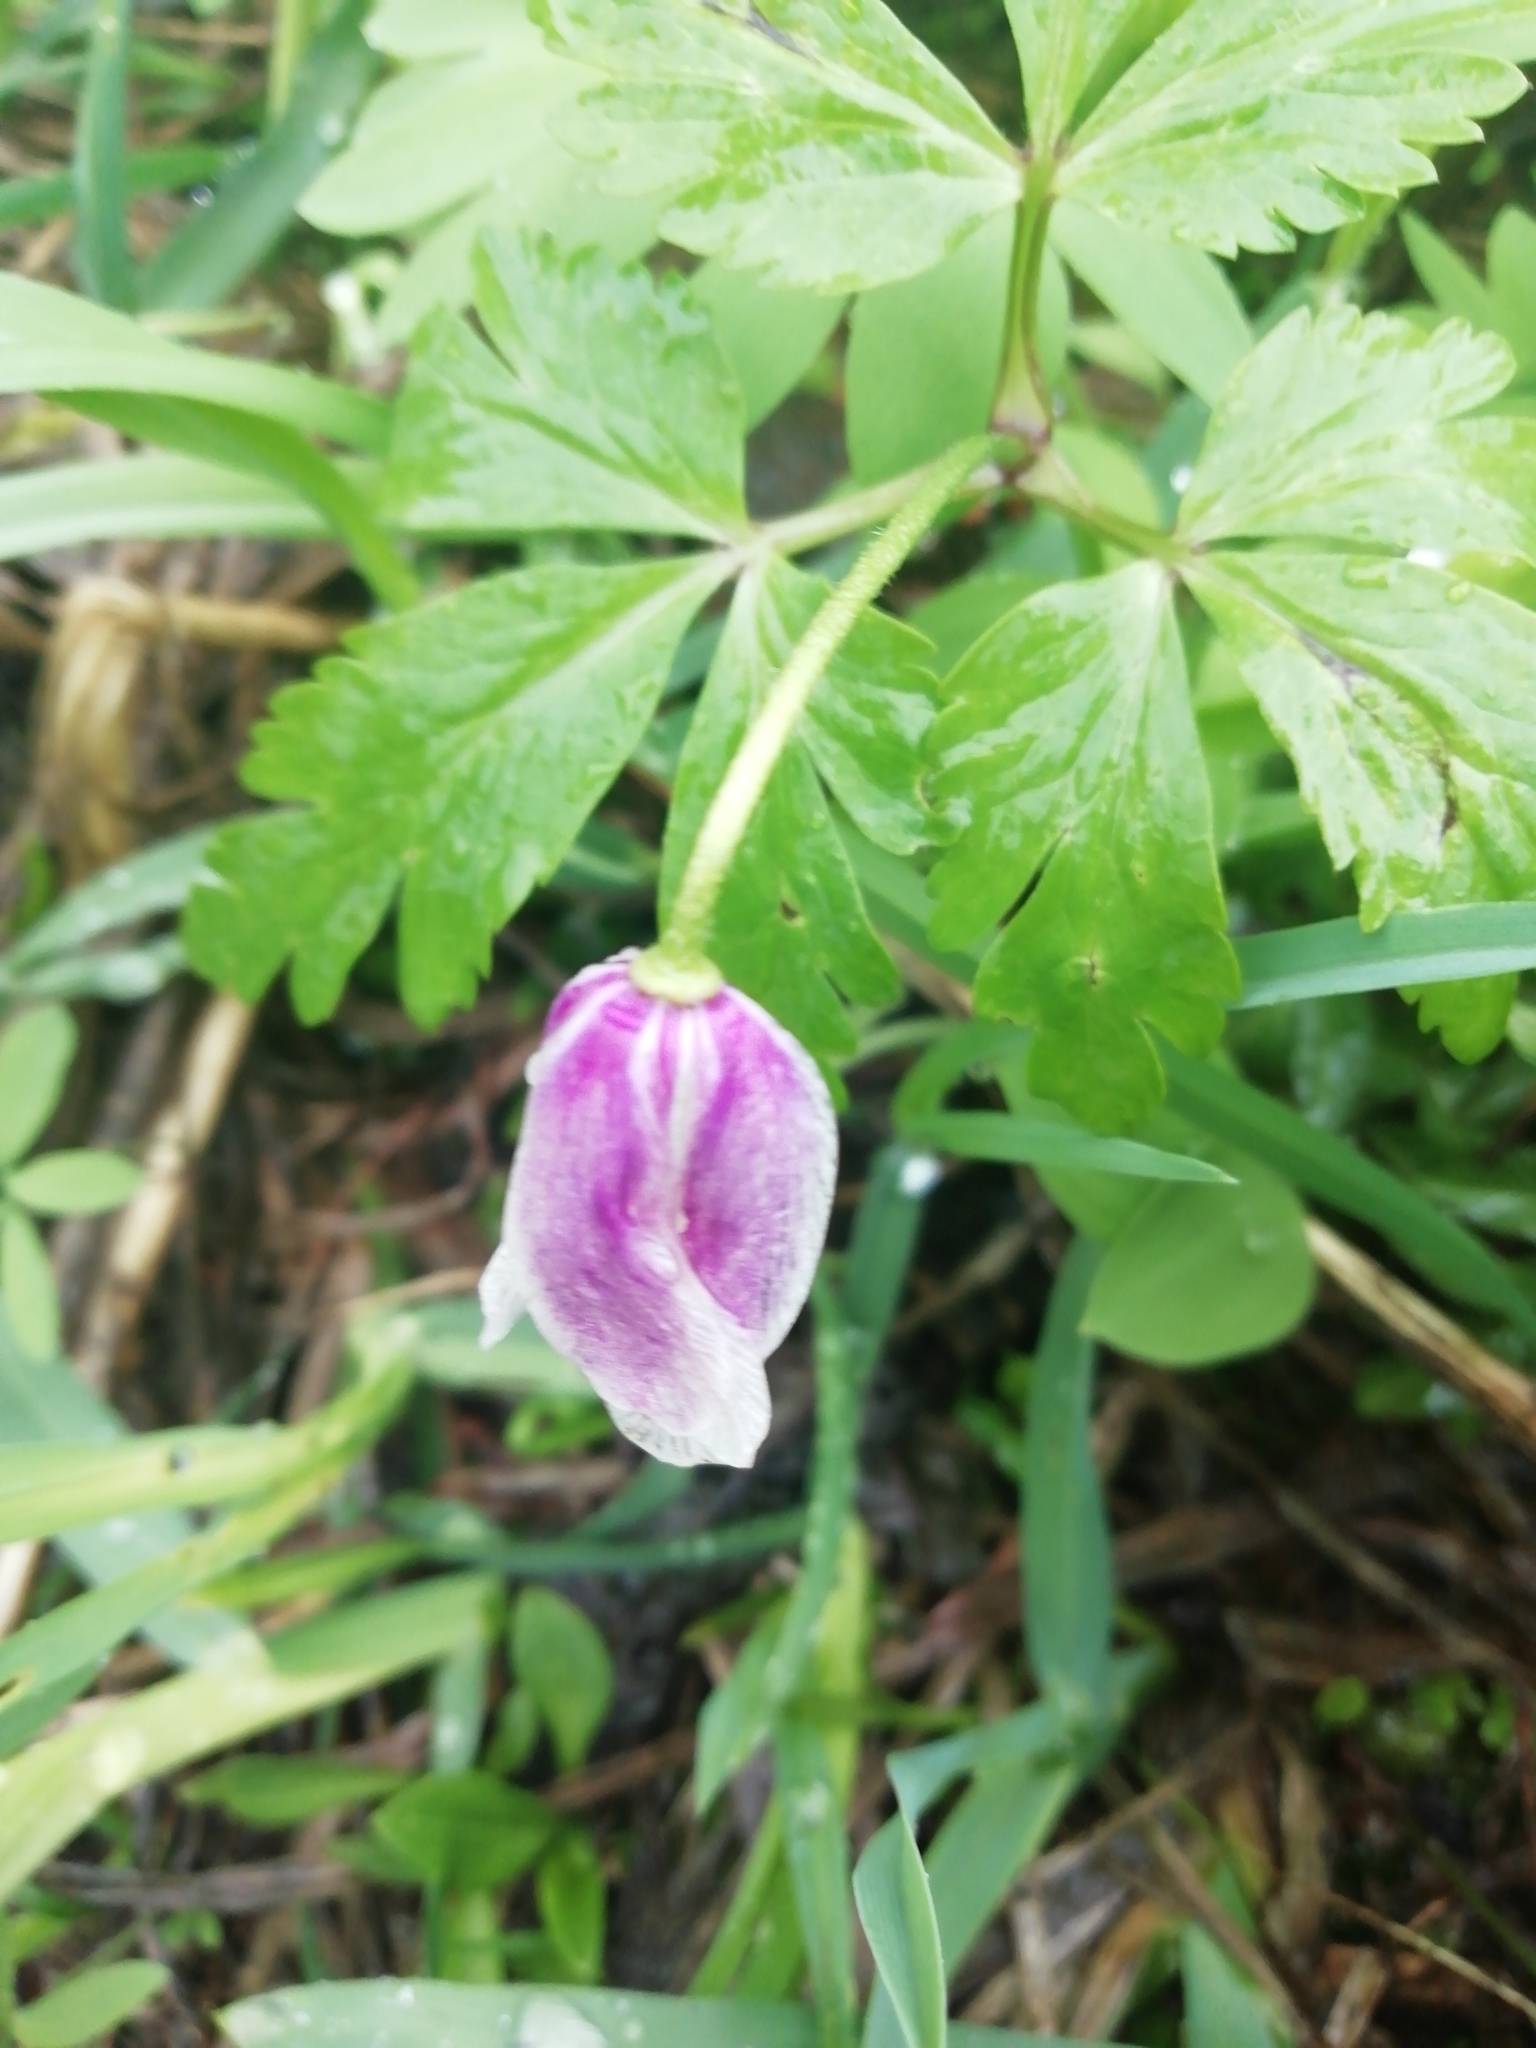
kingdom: Plantae
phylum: Tracheophyta
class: Magnoliopsida
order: Ranunculales
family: Ranunculaceae
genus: Anemone
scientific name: Anemone altaica
